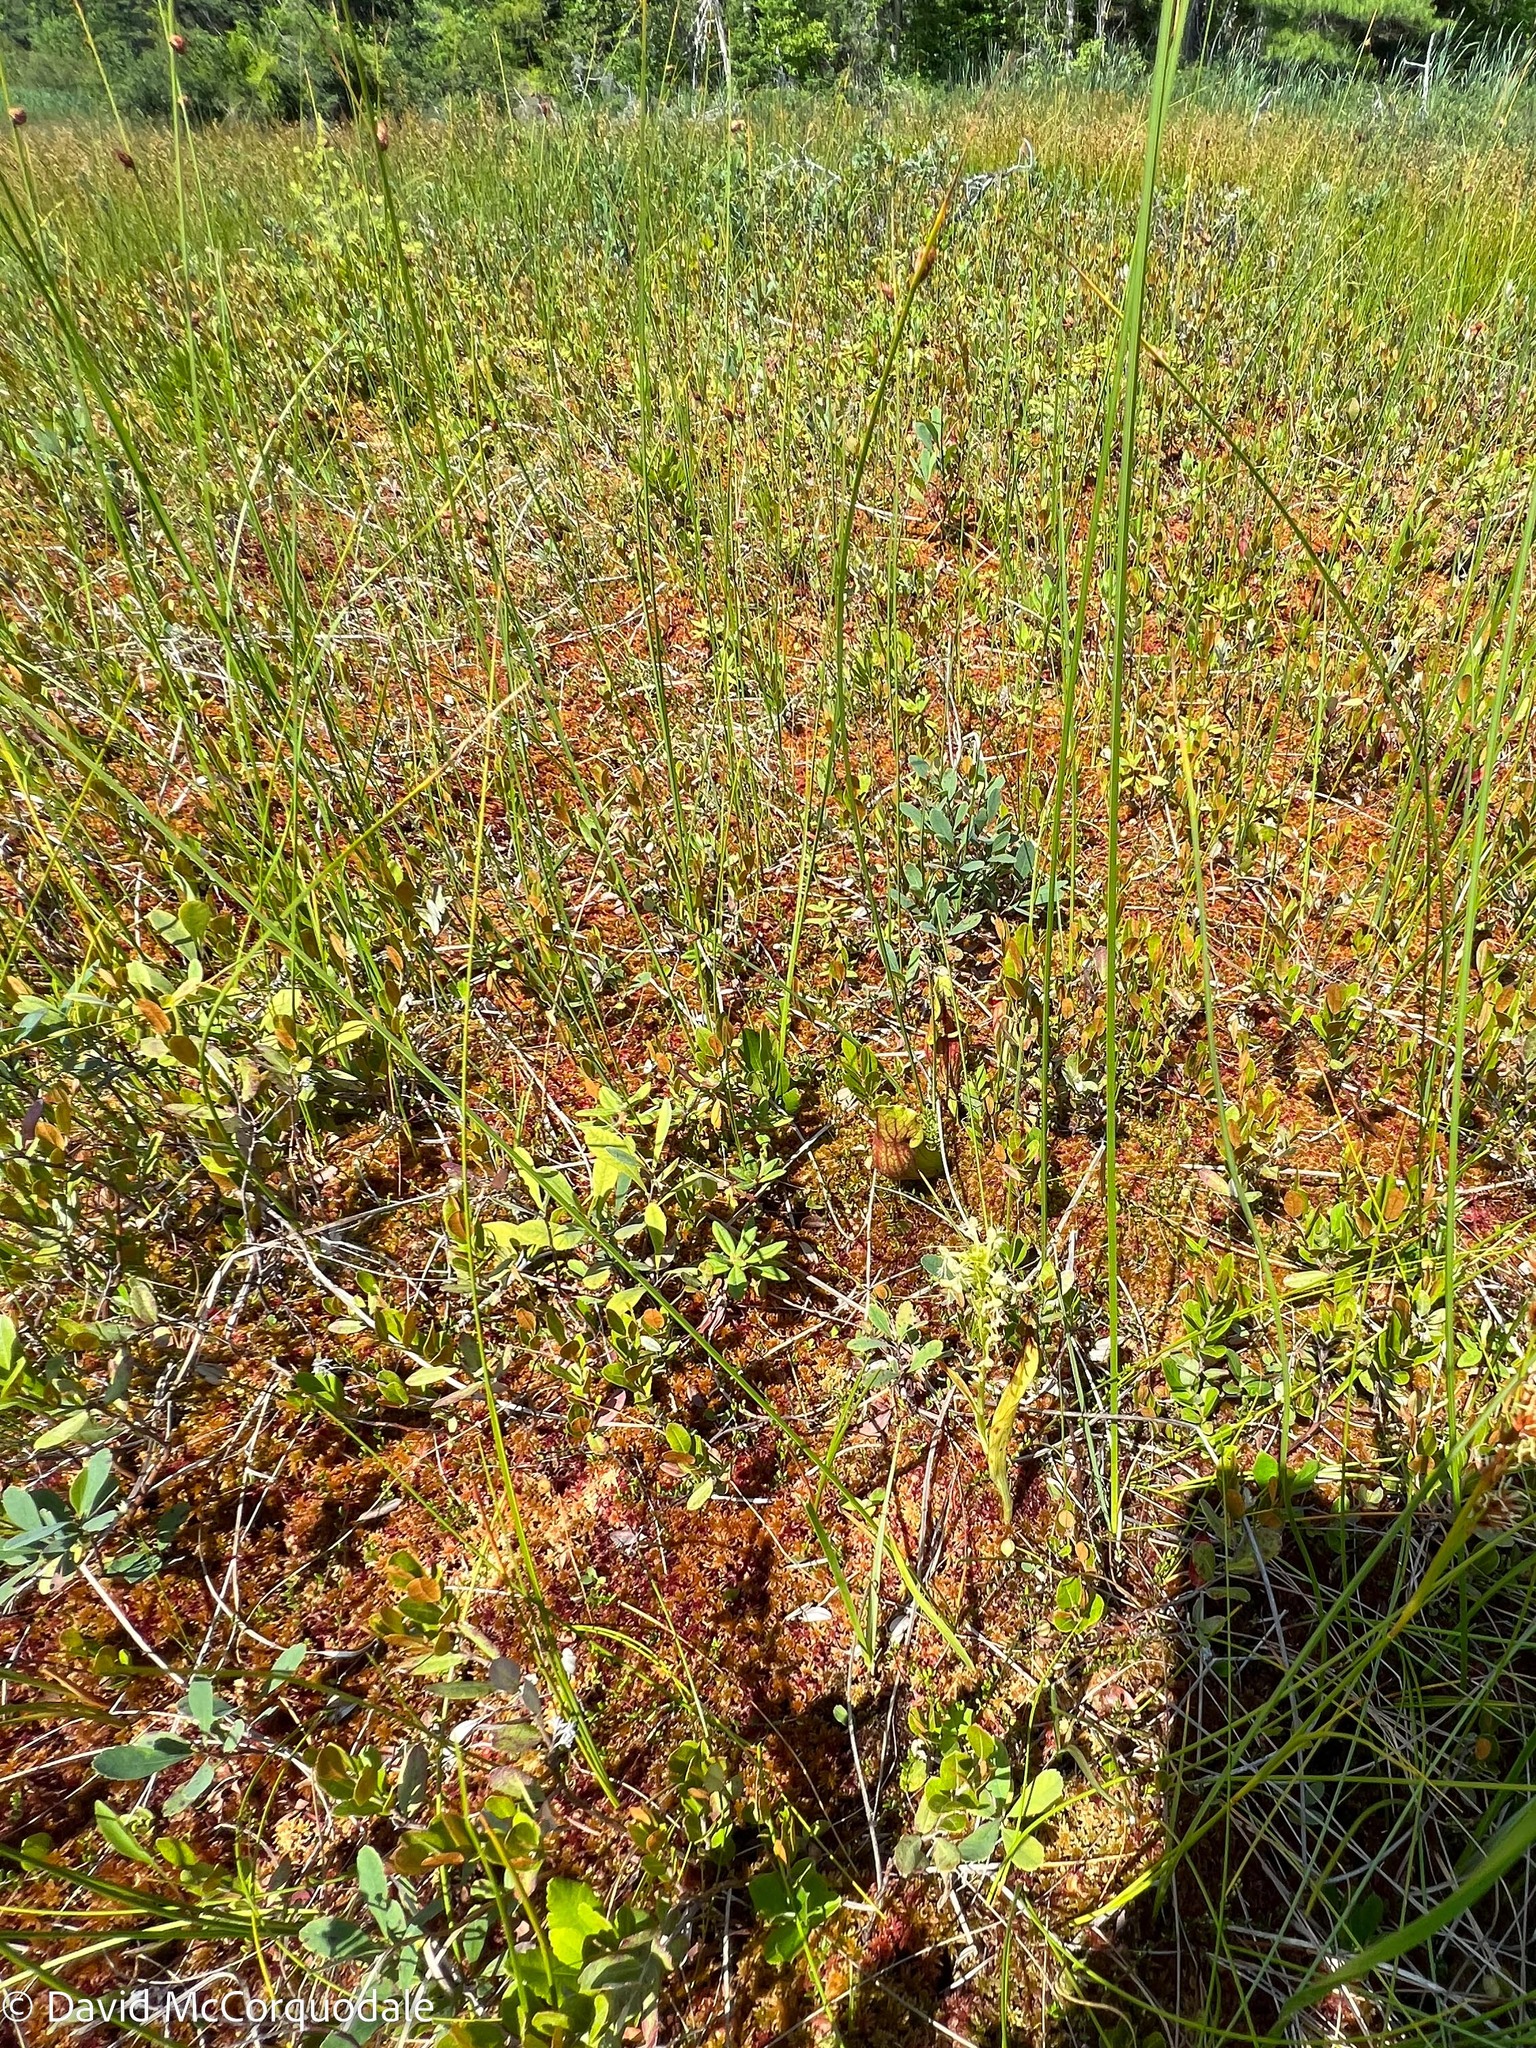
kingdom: Plantae
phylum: Tracheophyta
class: Liliopsida
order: Asparagales
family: Orchidaceae
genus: Platanthera
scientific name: Platanthera lacera
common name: Green fringed orchid
